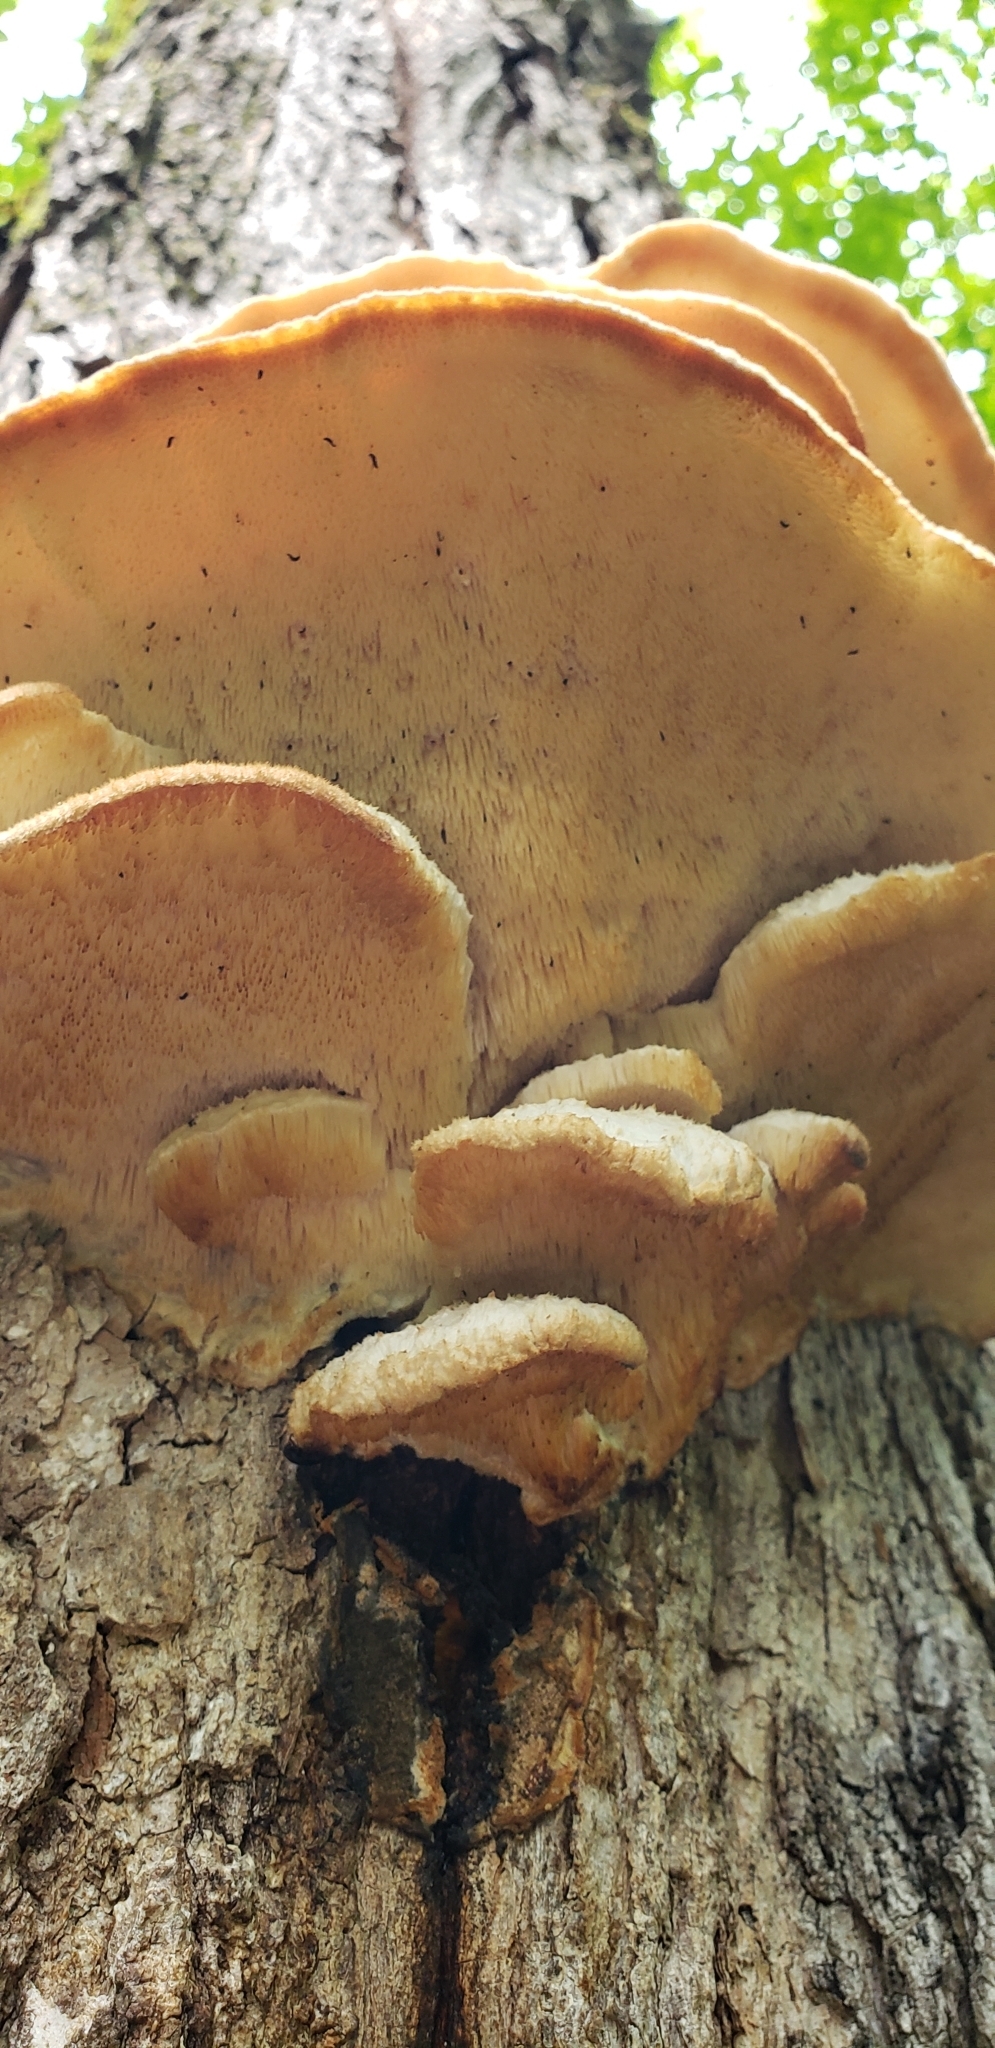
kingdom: Fungi
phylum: Basidiomycota
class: Agaricomycetes
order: Polyporales
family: Meruliaceae
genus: Climacodon
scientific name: Climacodon septentrionalis
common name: Northern tooth
